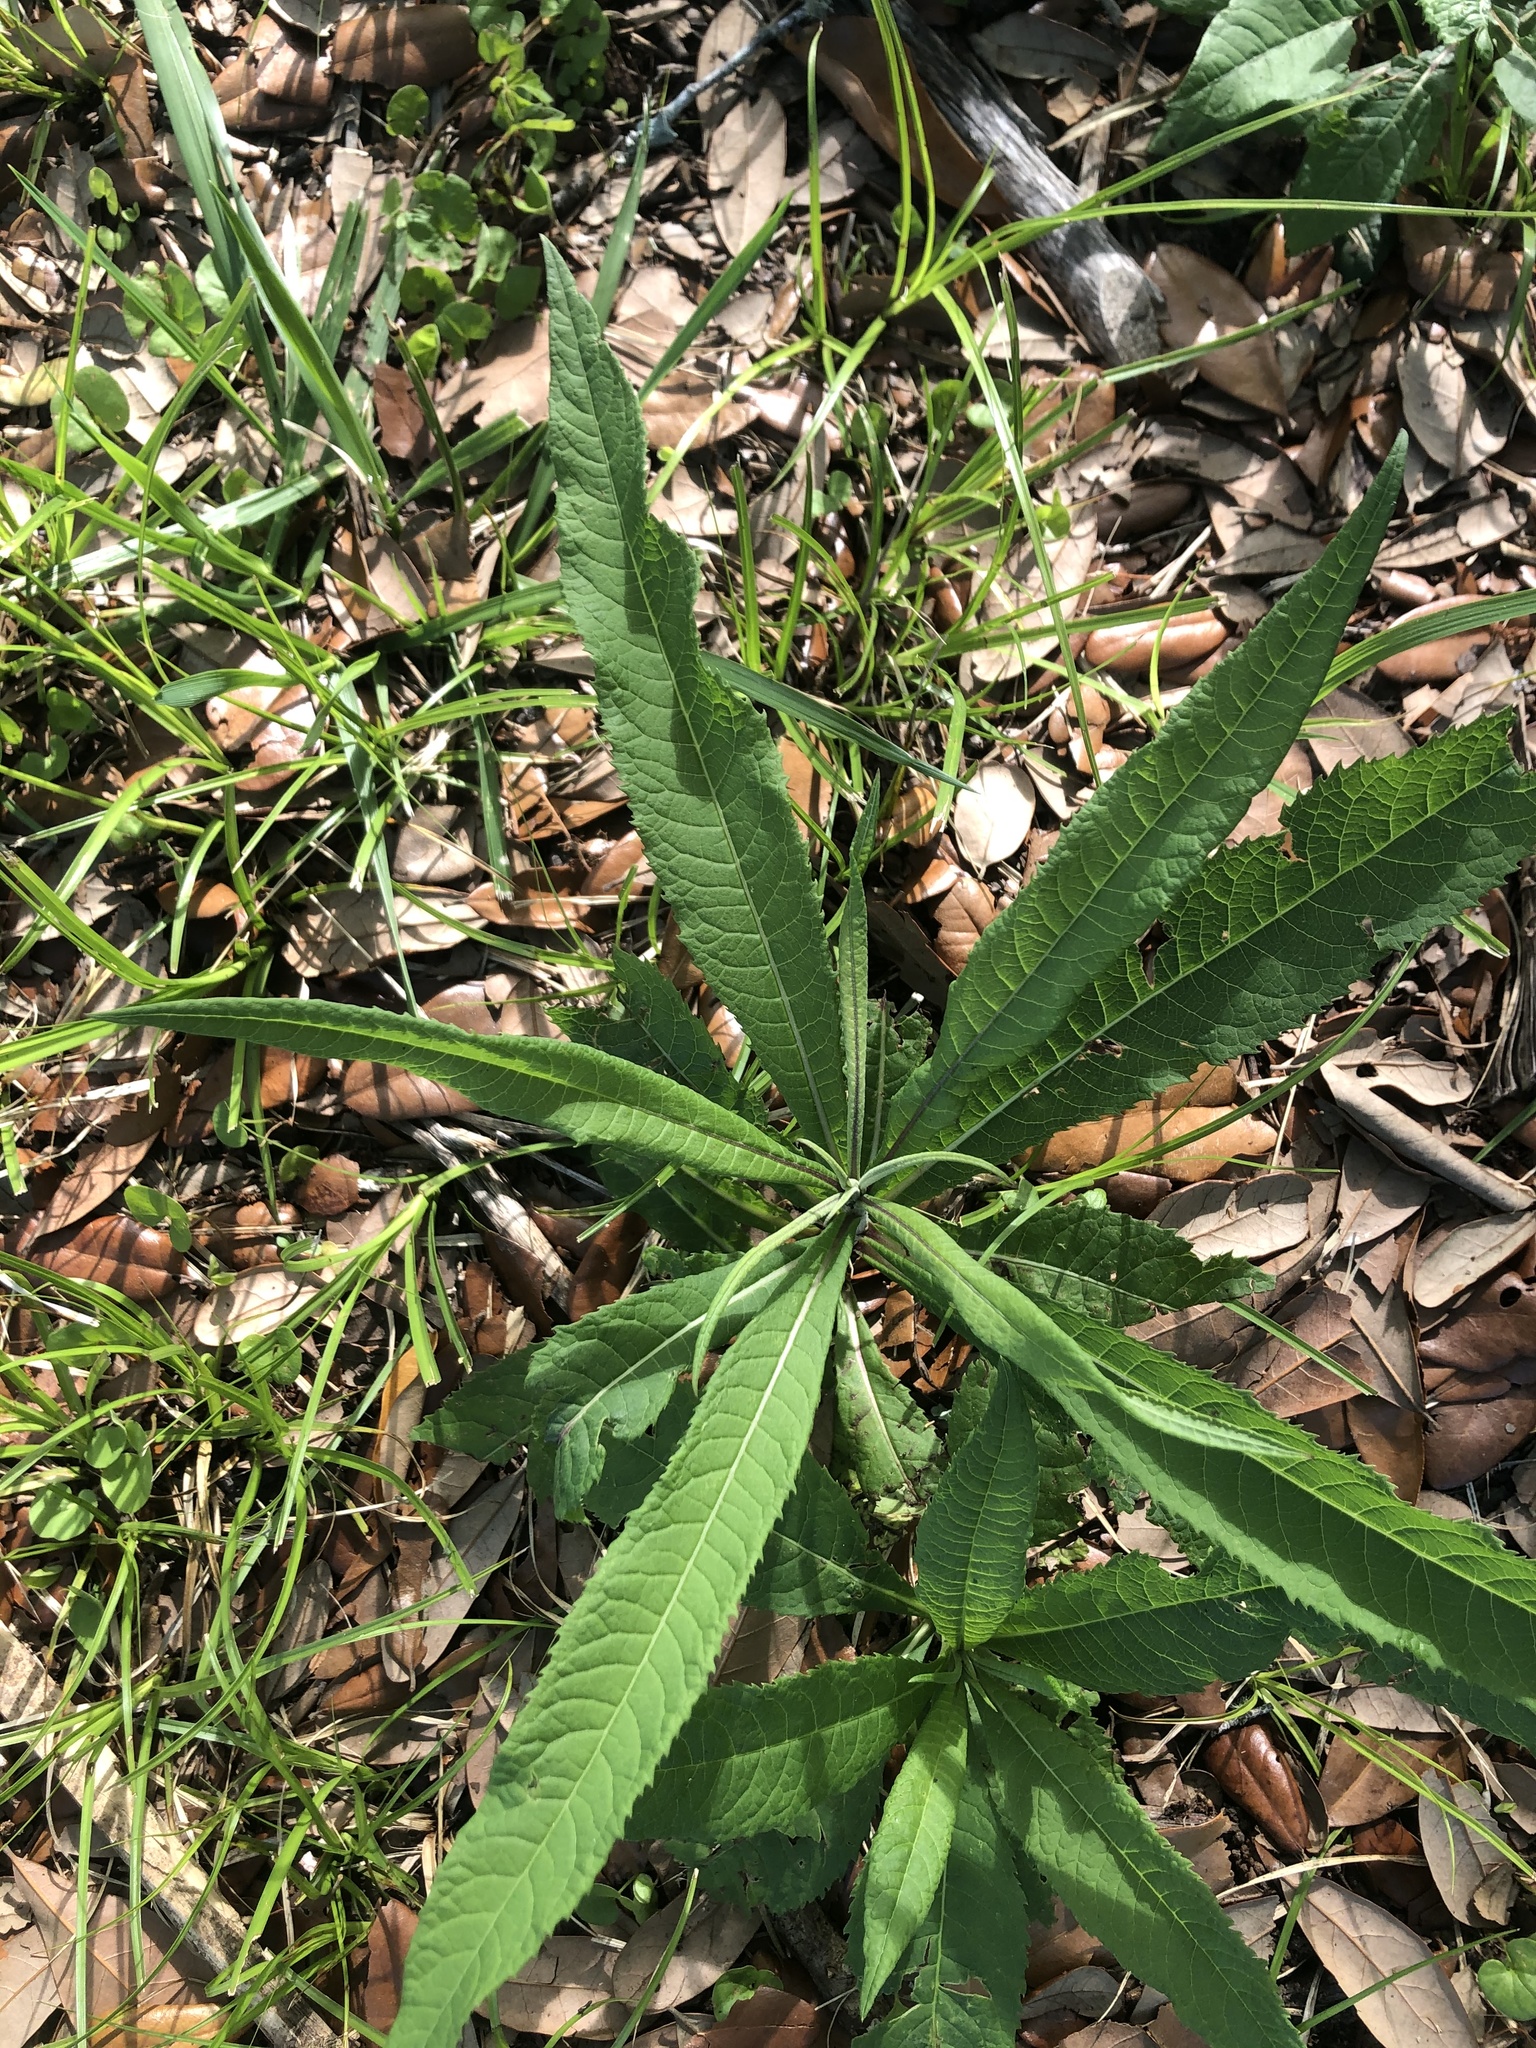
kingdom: Plantae
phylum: Tracheophyta
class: Magnoliopsida
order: Asterales
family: Asteraceae
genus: Vernonia
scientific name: Vernonia gigantea
